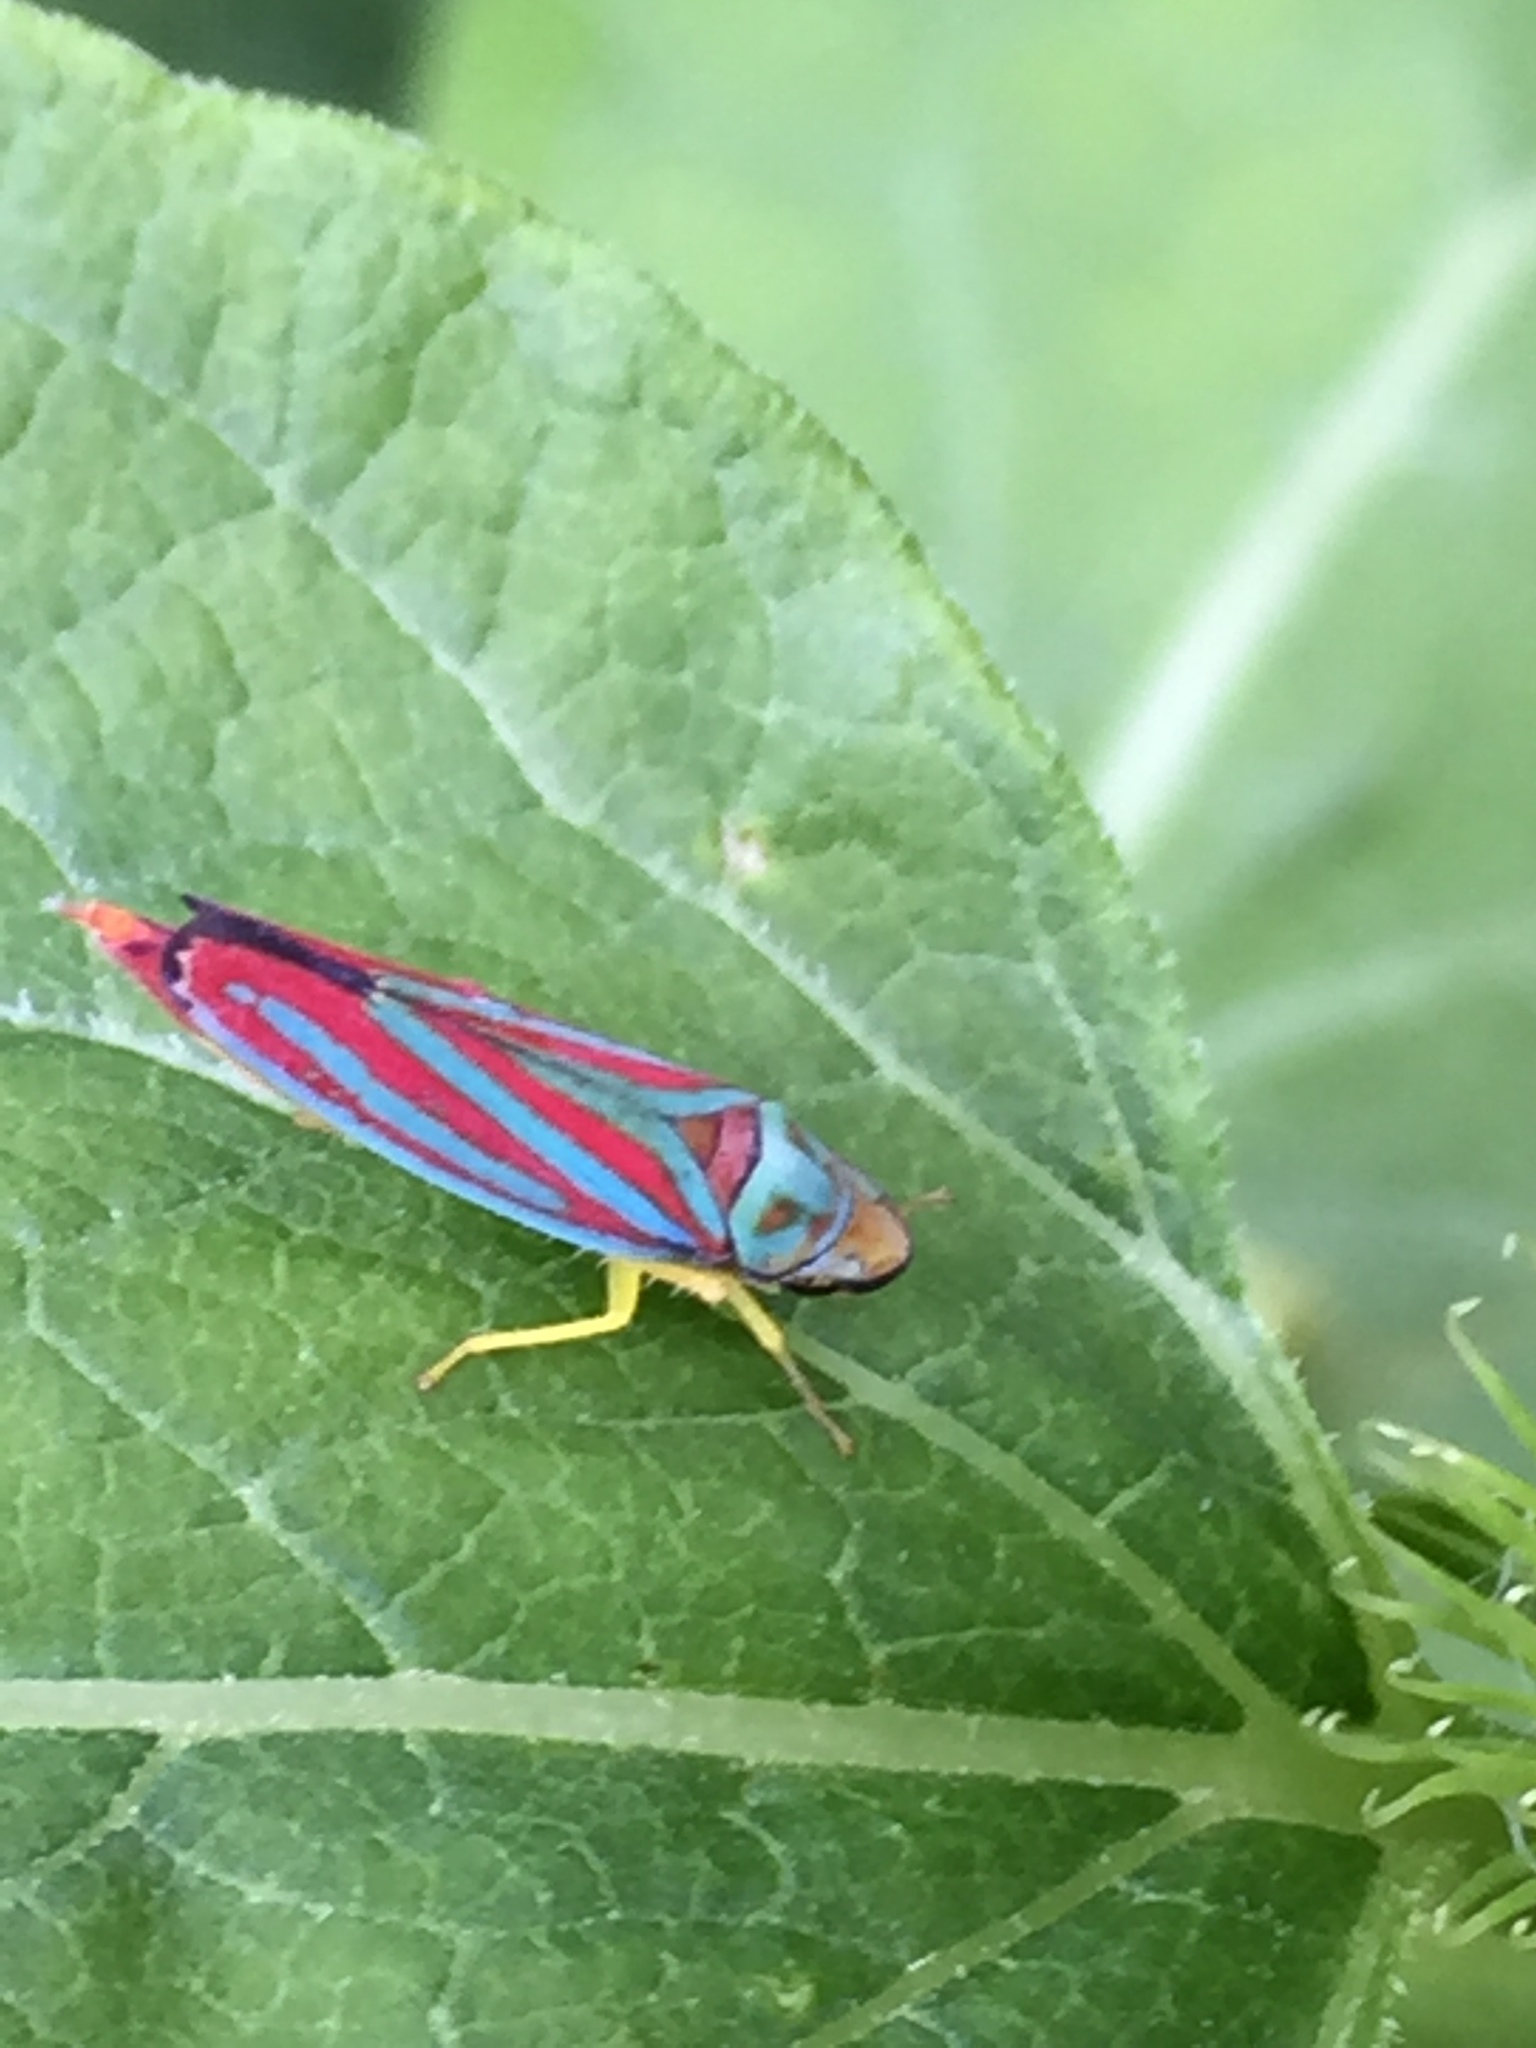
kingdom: Animalia
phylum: Arthropoda
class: Insecta
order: Hemiptera
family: Cicadellidae
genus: Graphocephala
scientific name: Graphocephala coccinea
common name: Candy-striped leafhopper
